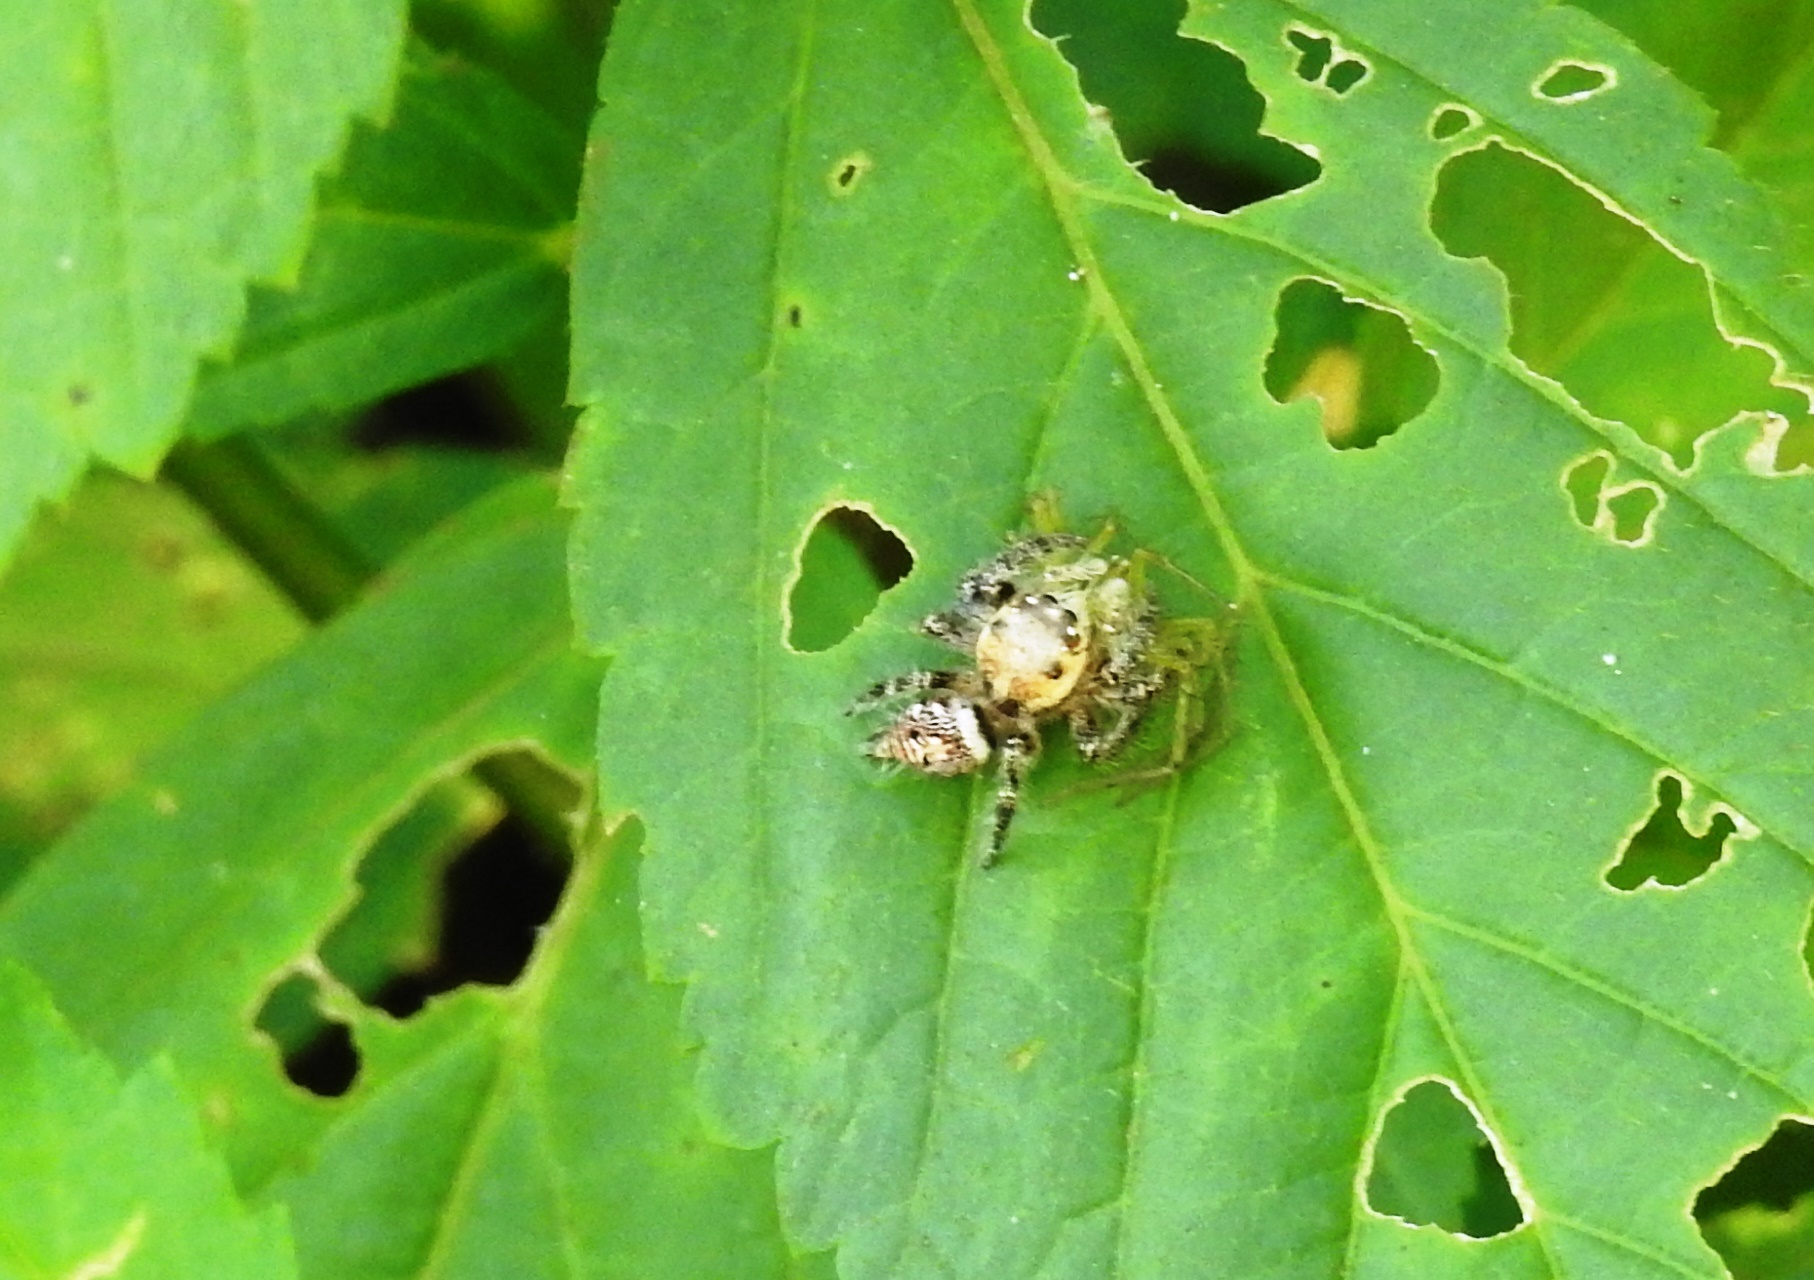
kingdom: Animalia
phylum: Arthropoda
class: Arachnida
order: Araneae
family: Salticidae
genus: Hyllus
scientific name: Hyllus semicupreus
